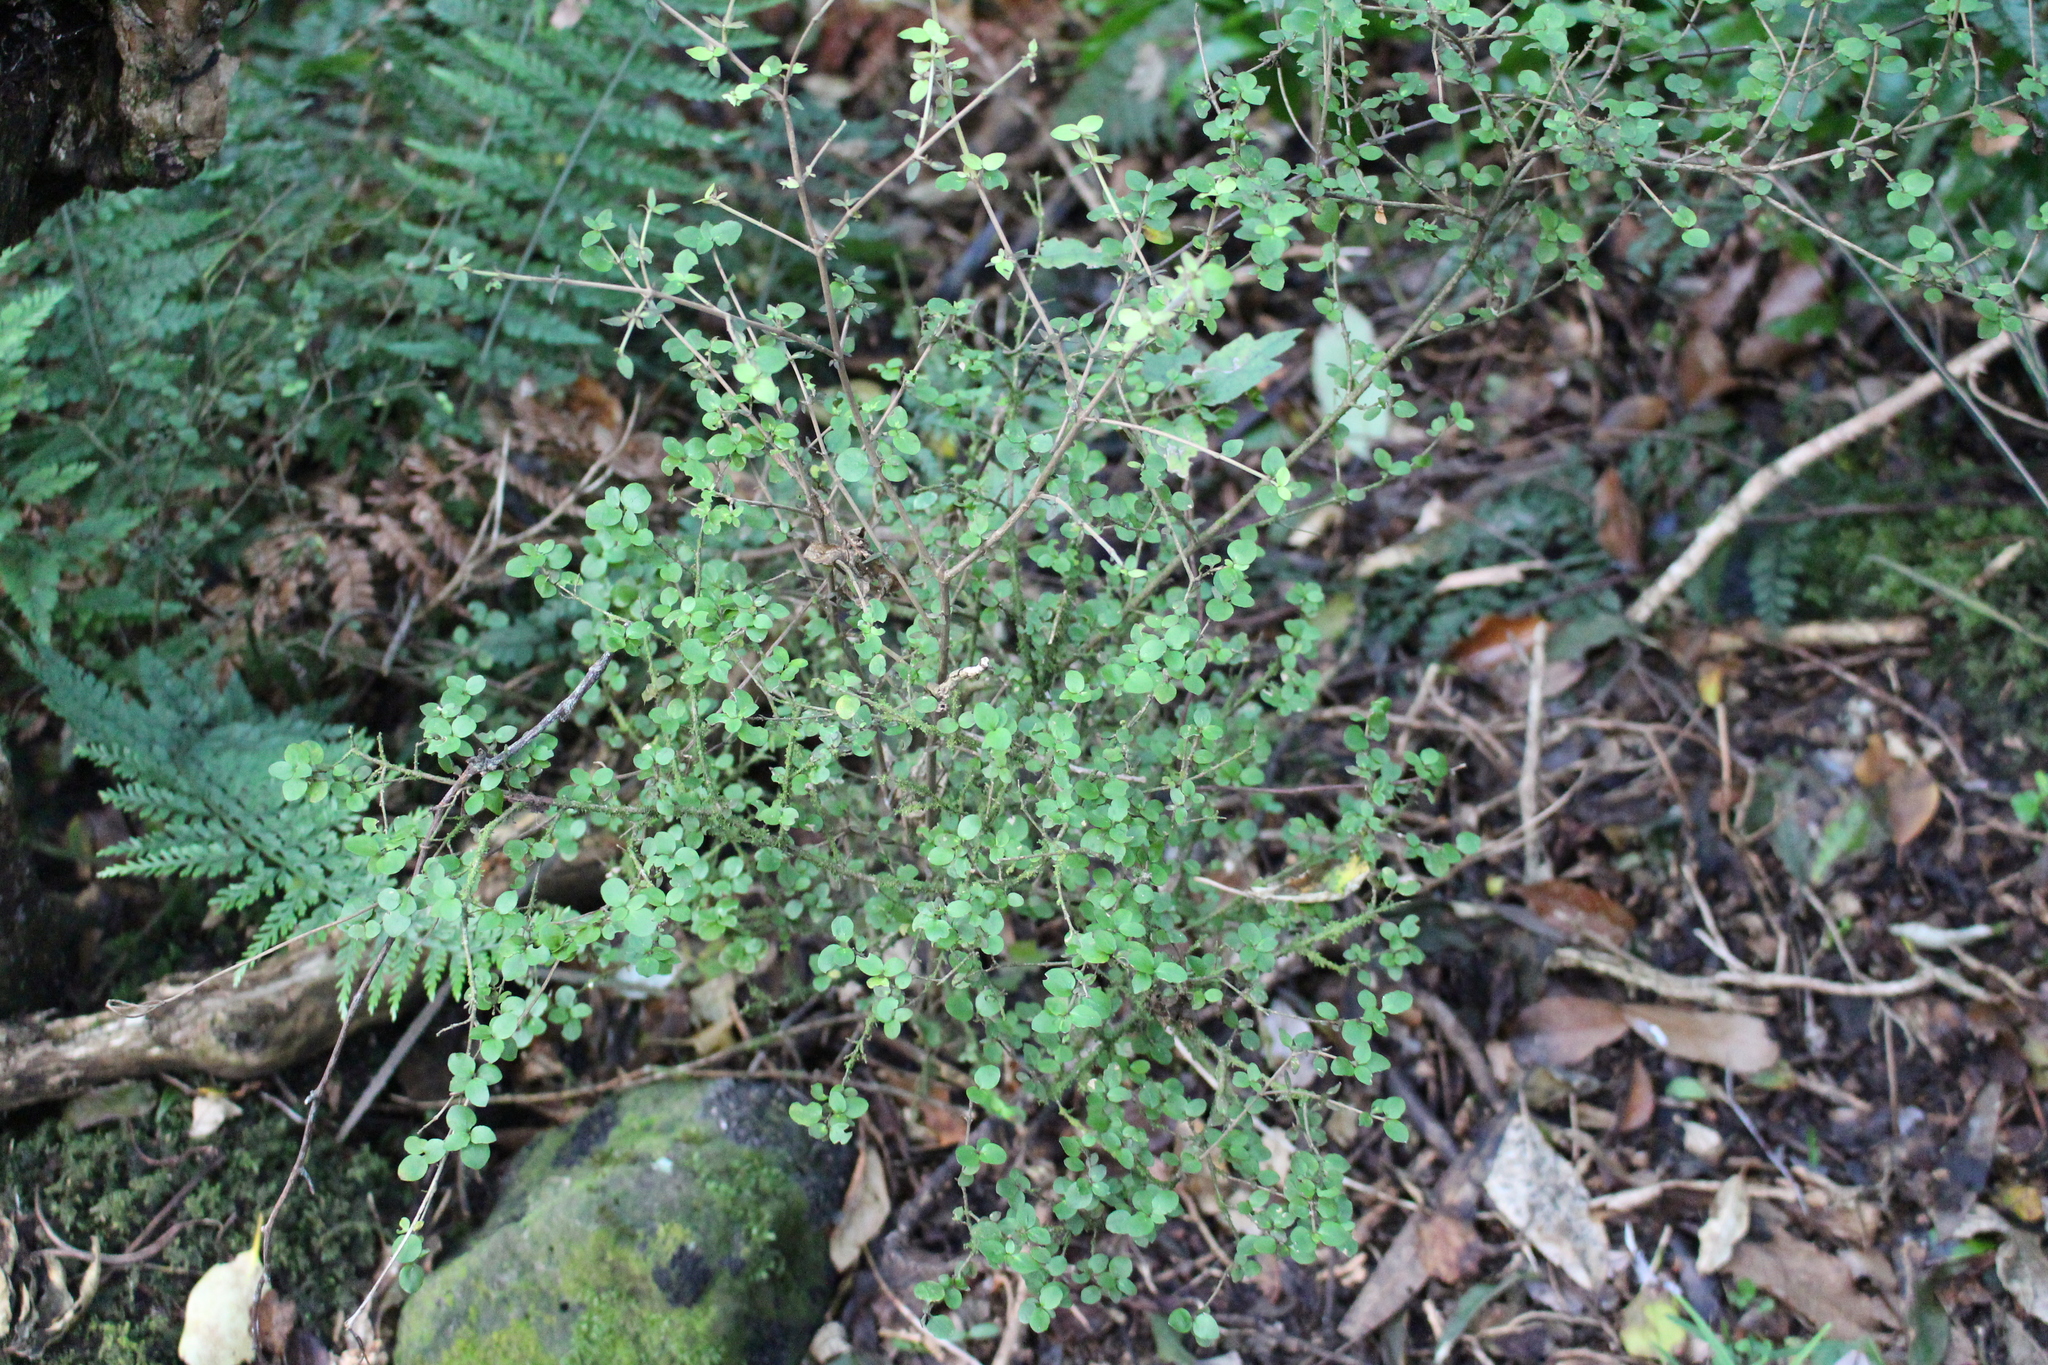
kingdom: Plantae
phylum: Tracheophyta
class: Magnoliopsida
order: Gentianales
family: Rubiaceae
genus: Coprosma
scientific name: Coprosma rhamnoides
